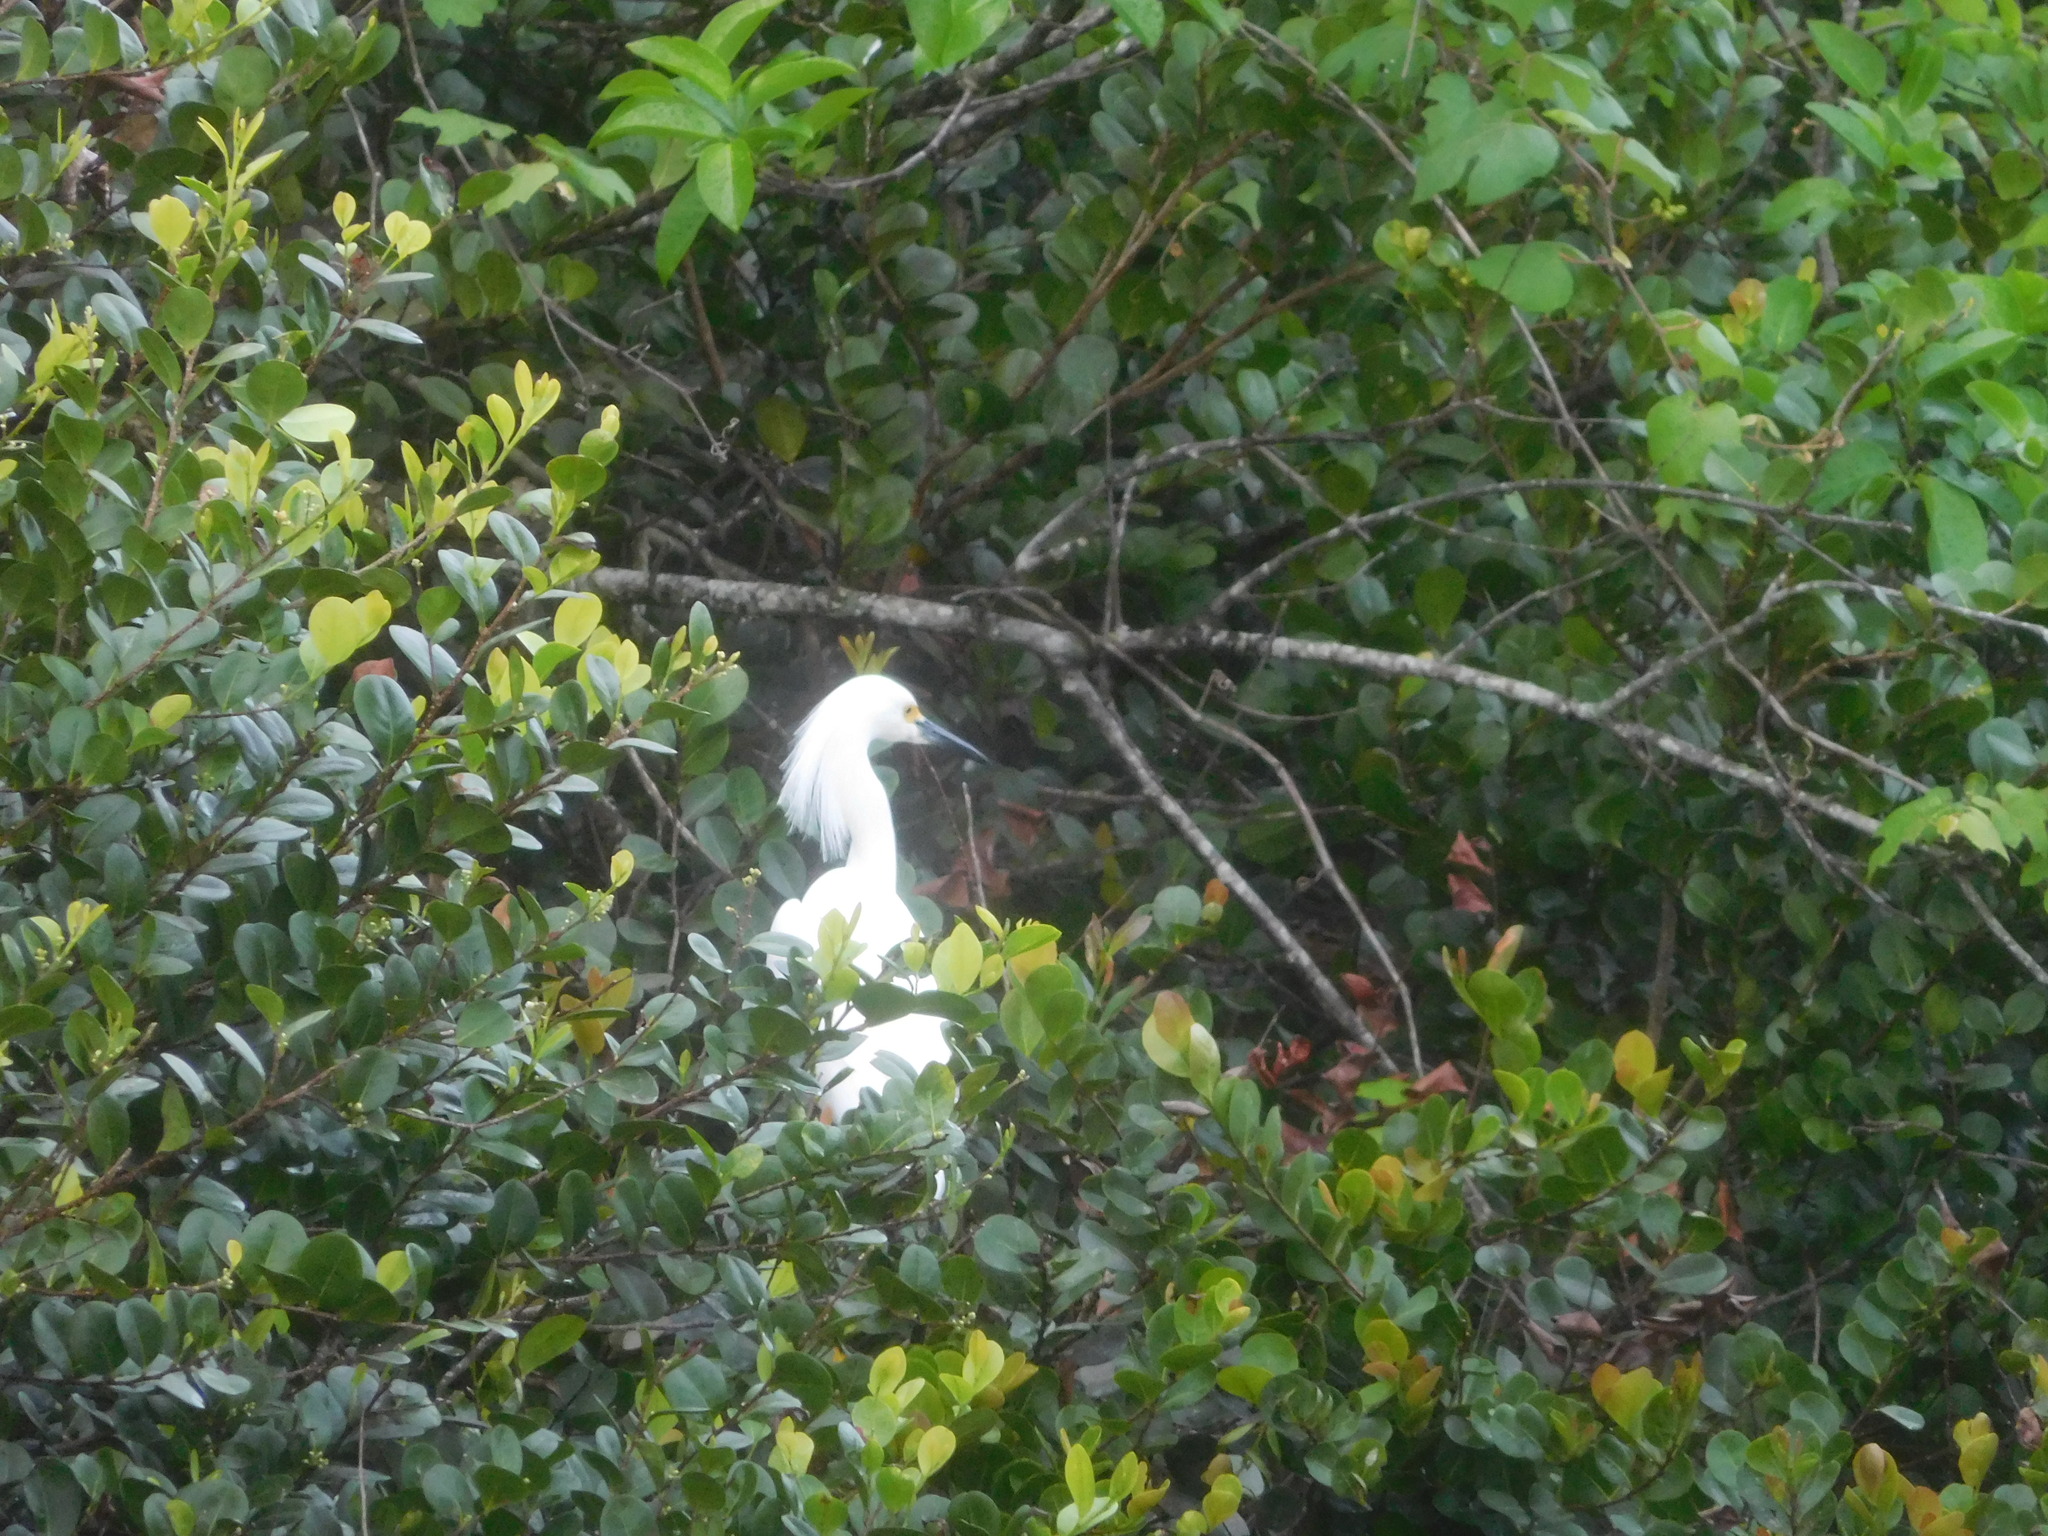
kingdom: Animalia
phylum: Chordata
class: Aves
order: Pelecaniformes
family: Ardeidae
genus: Egretta
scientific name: Egretta thula
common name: Snowy egret
